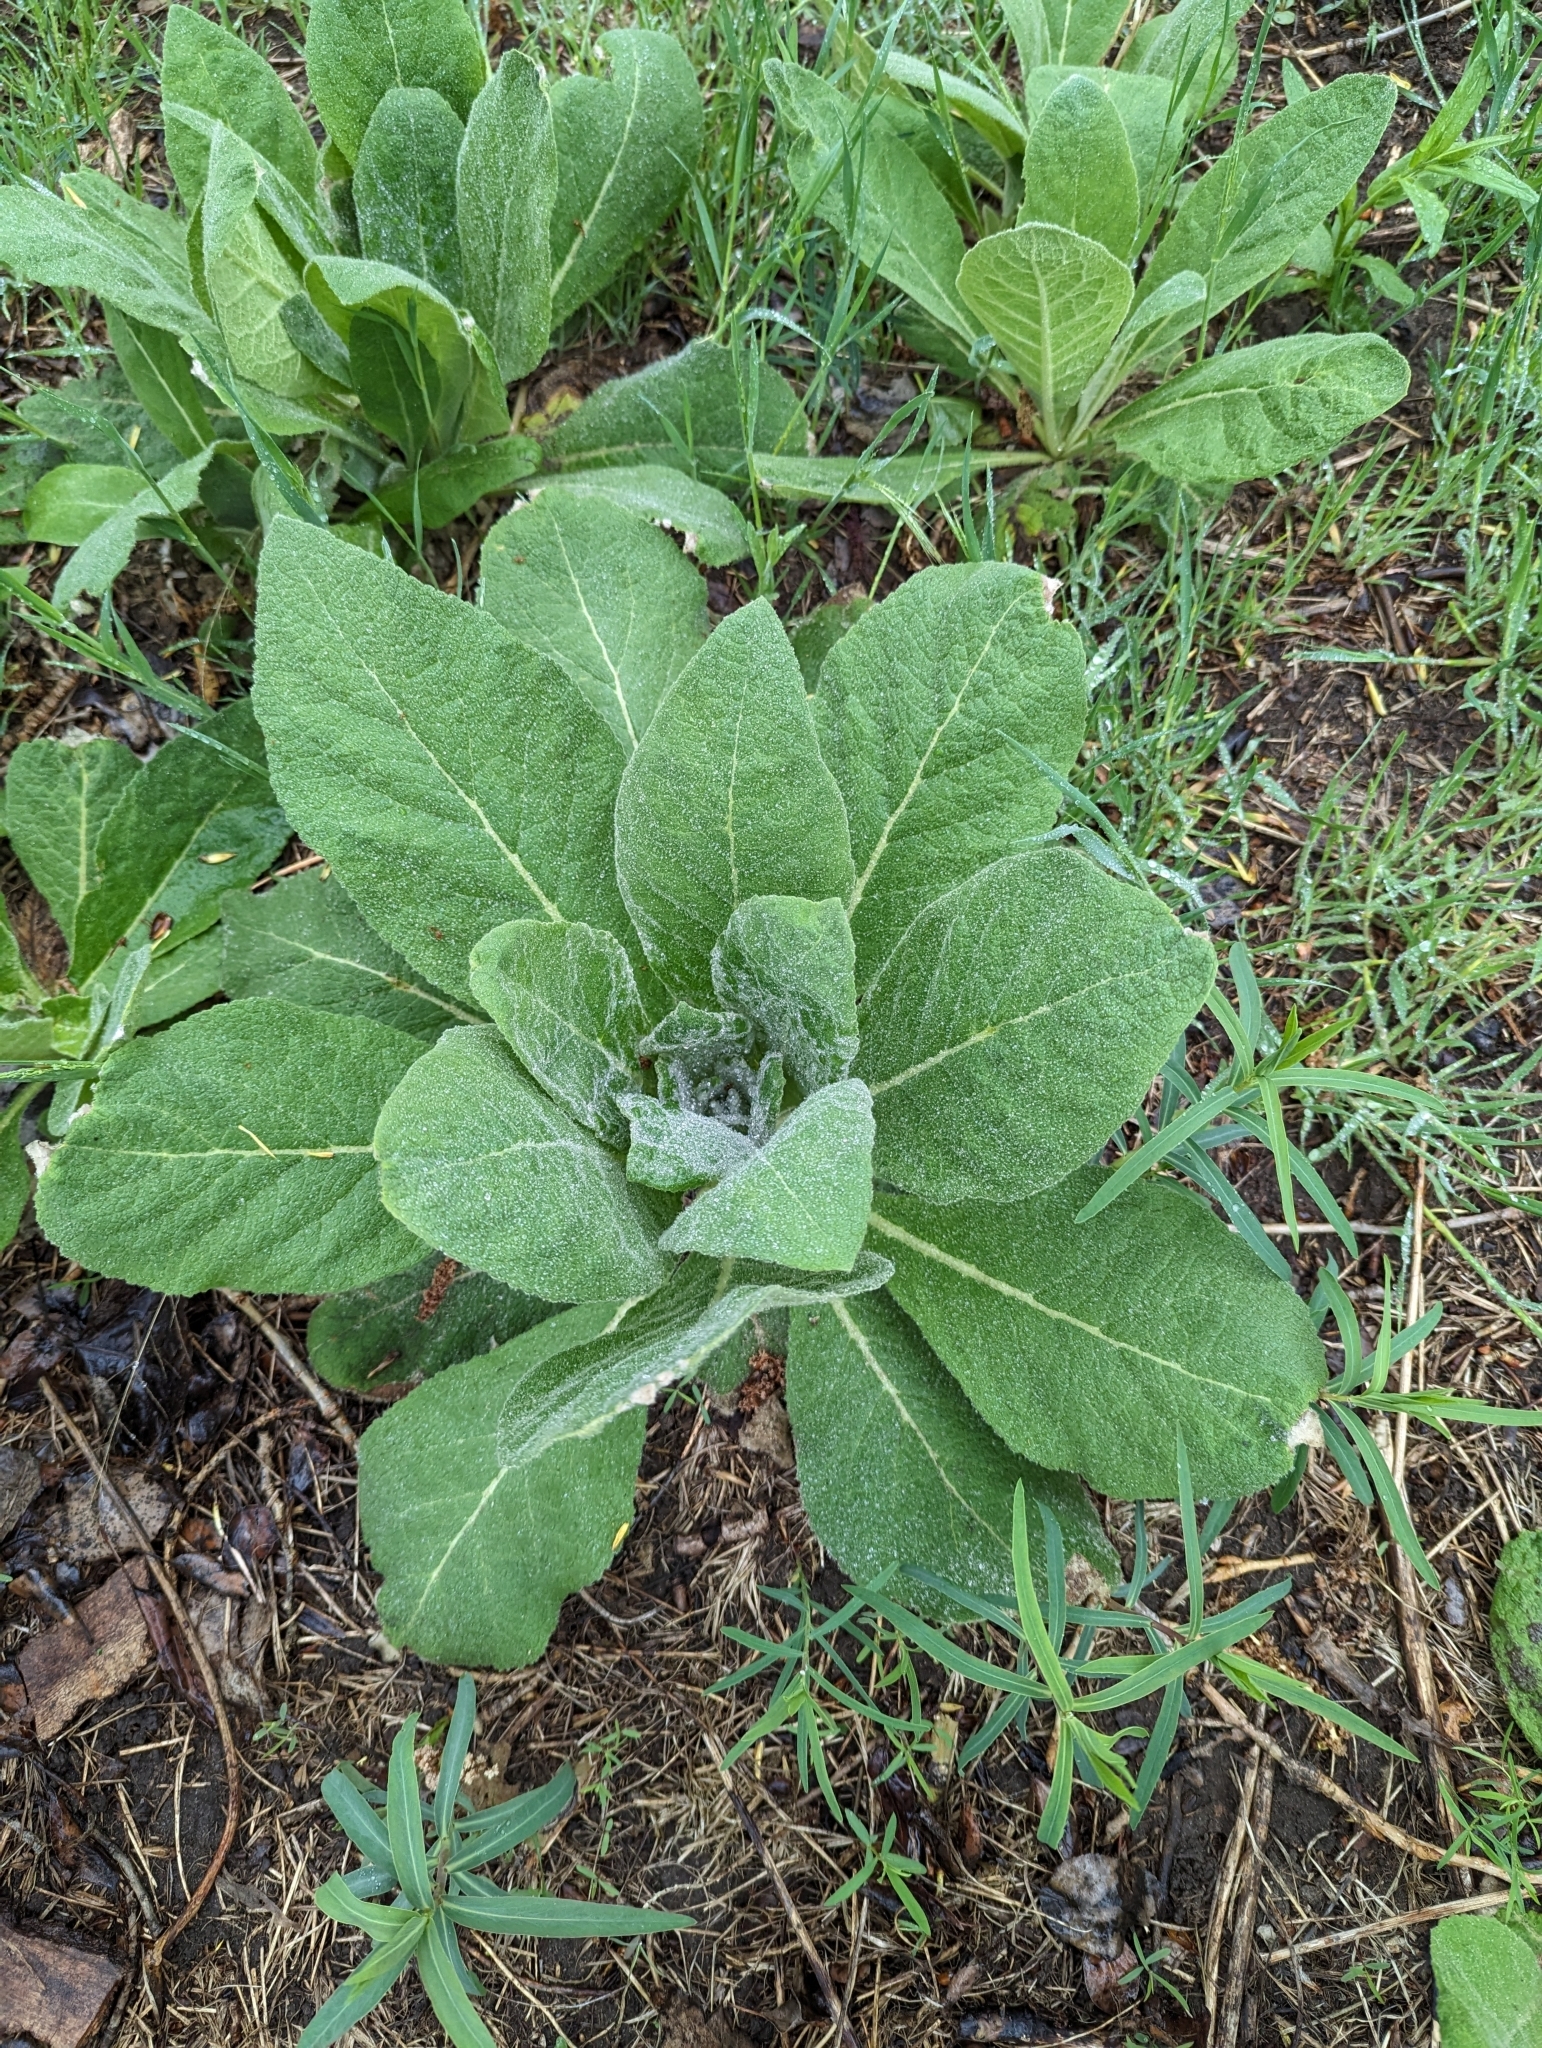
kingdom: Plantae
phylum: Tracheophyta
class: Magnoliopsida
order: Lamiales
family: Scrophulariaceae
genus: Verbascum
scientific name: Verbascum thapsus
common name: Common mullein
